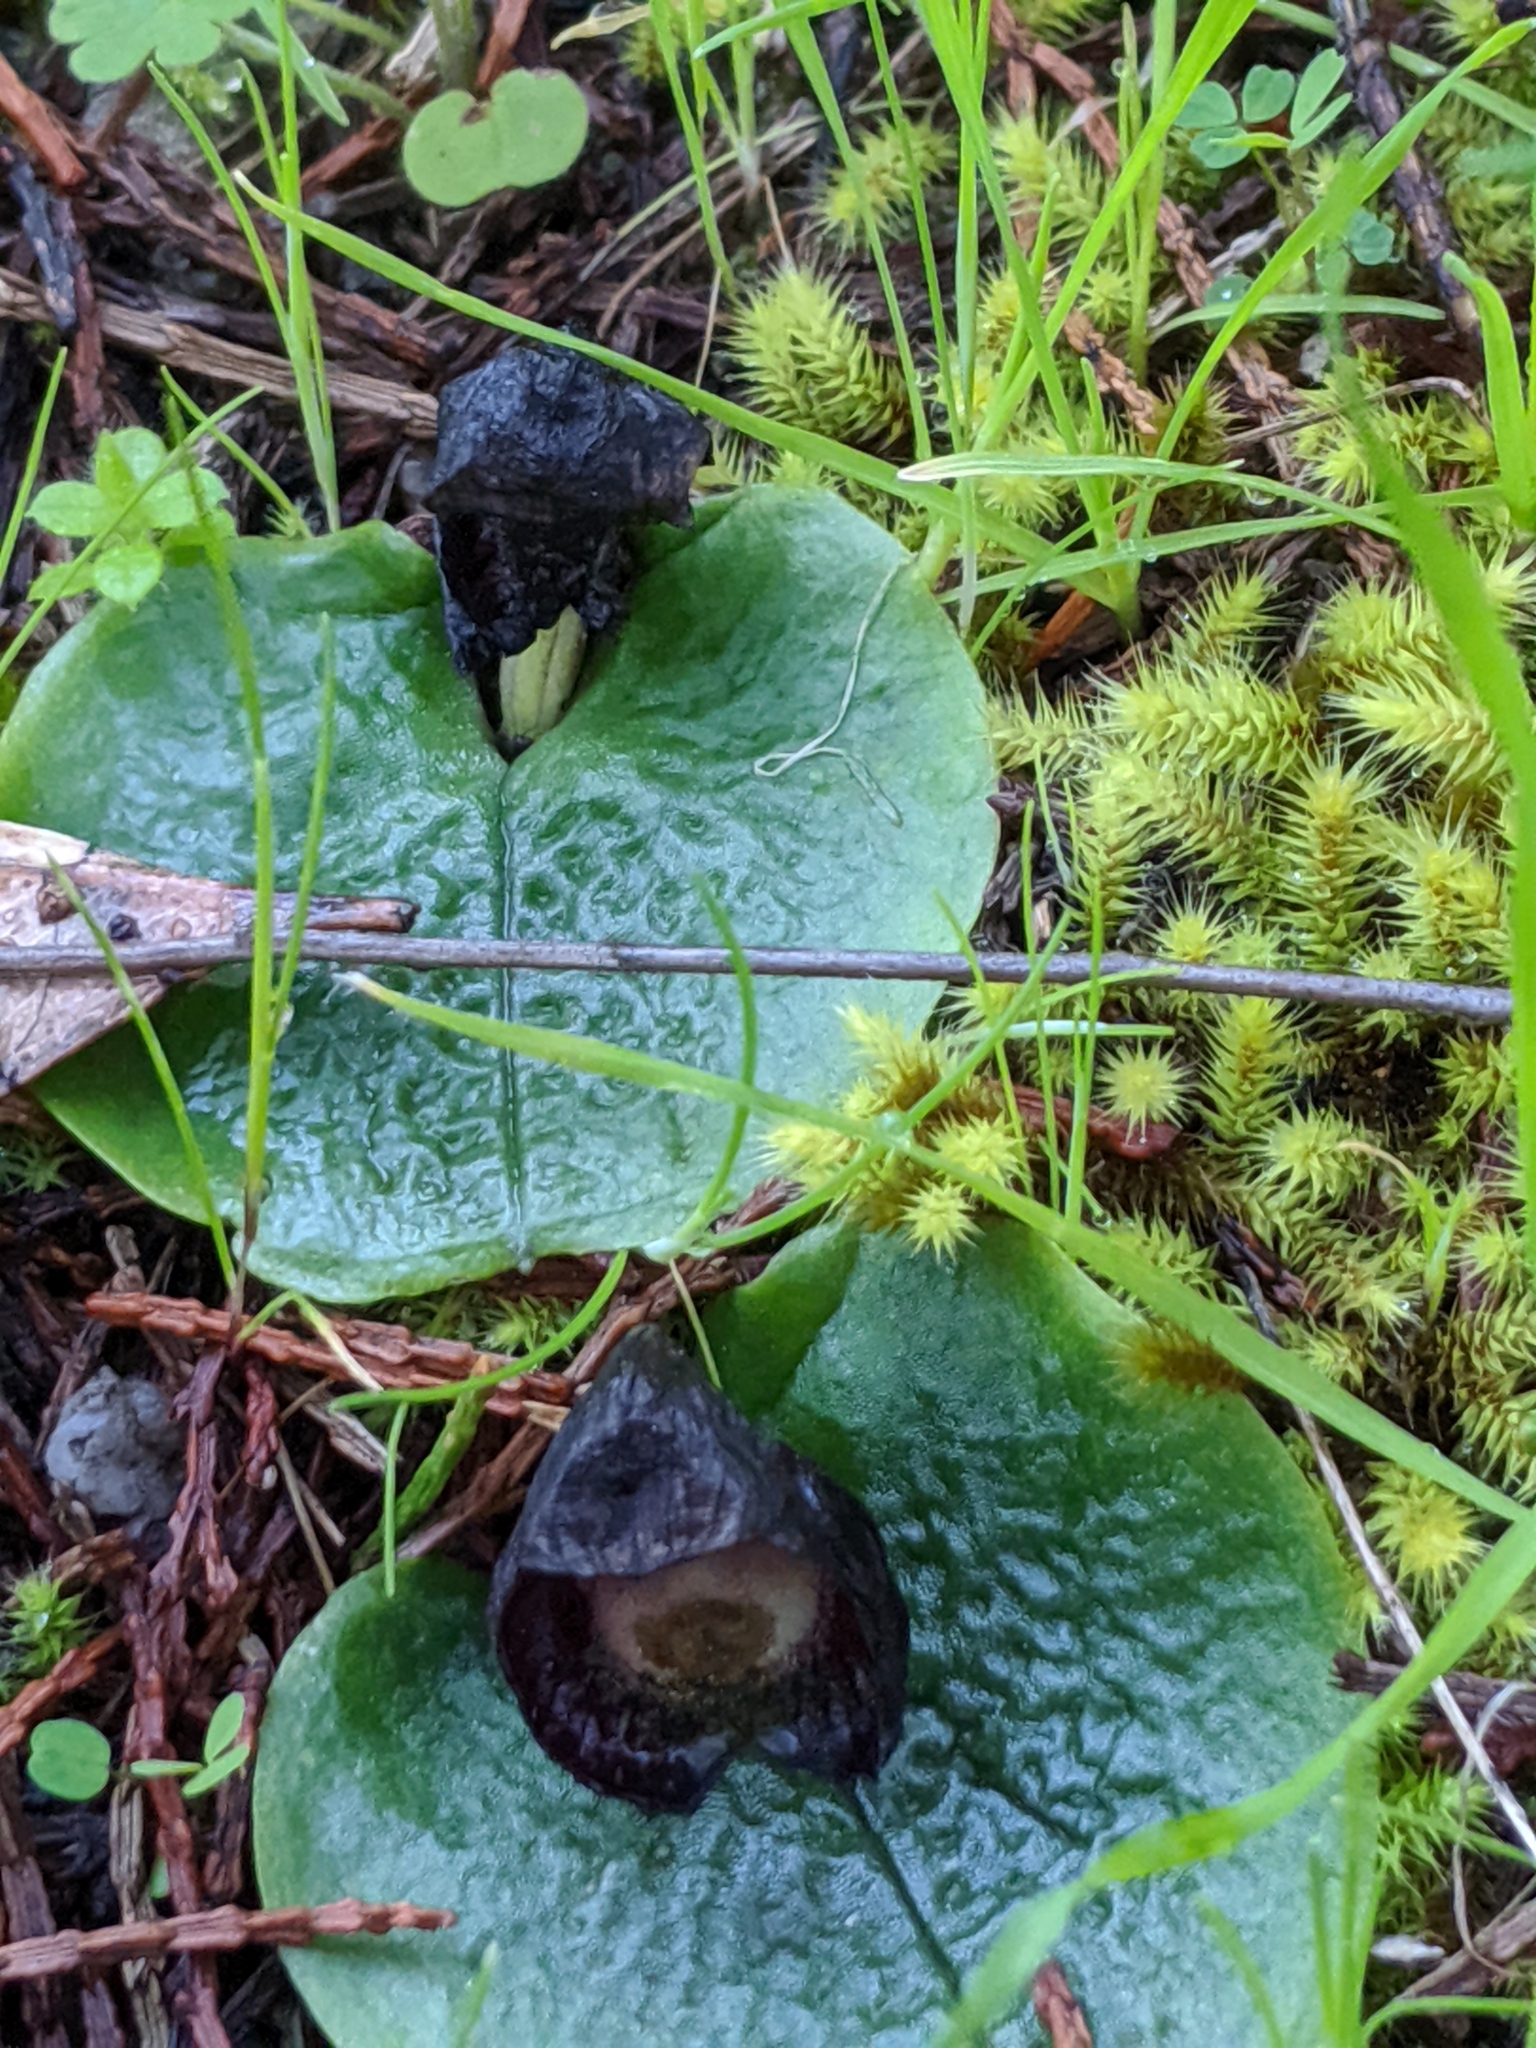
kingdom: Plantae
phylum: Tracheophyta
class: Liliopsida
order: Asparagales
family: Orchidaceae
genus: Corybas
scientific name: Corybas incurvus
